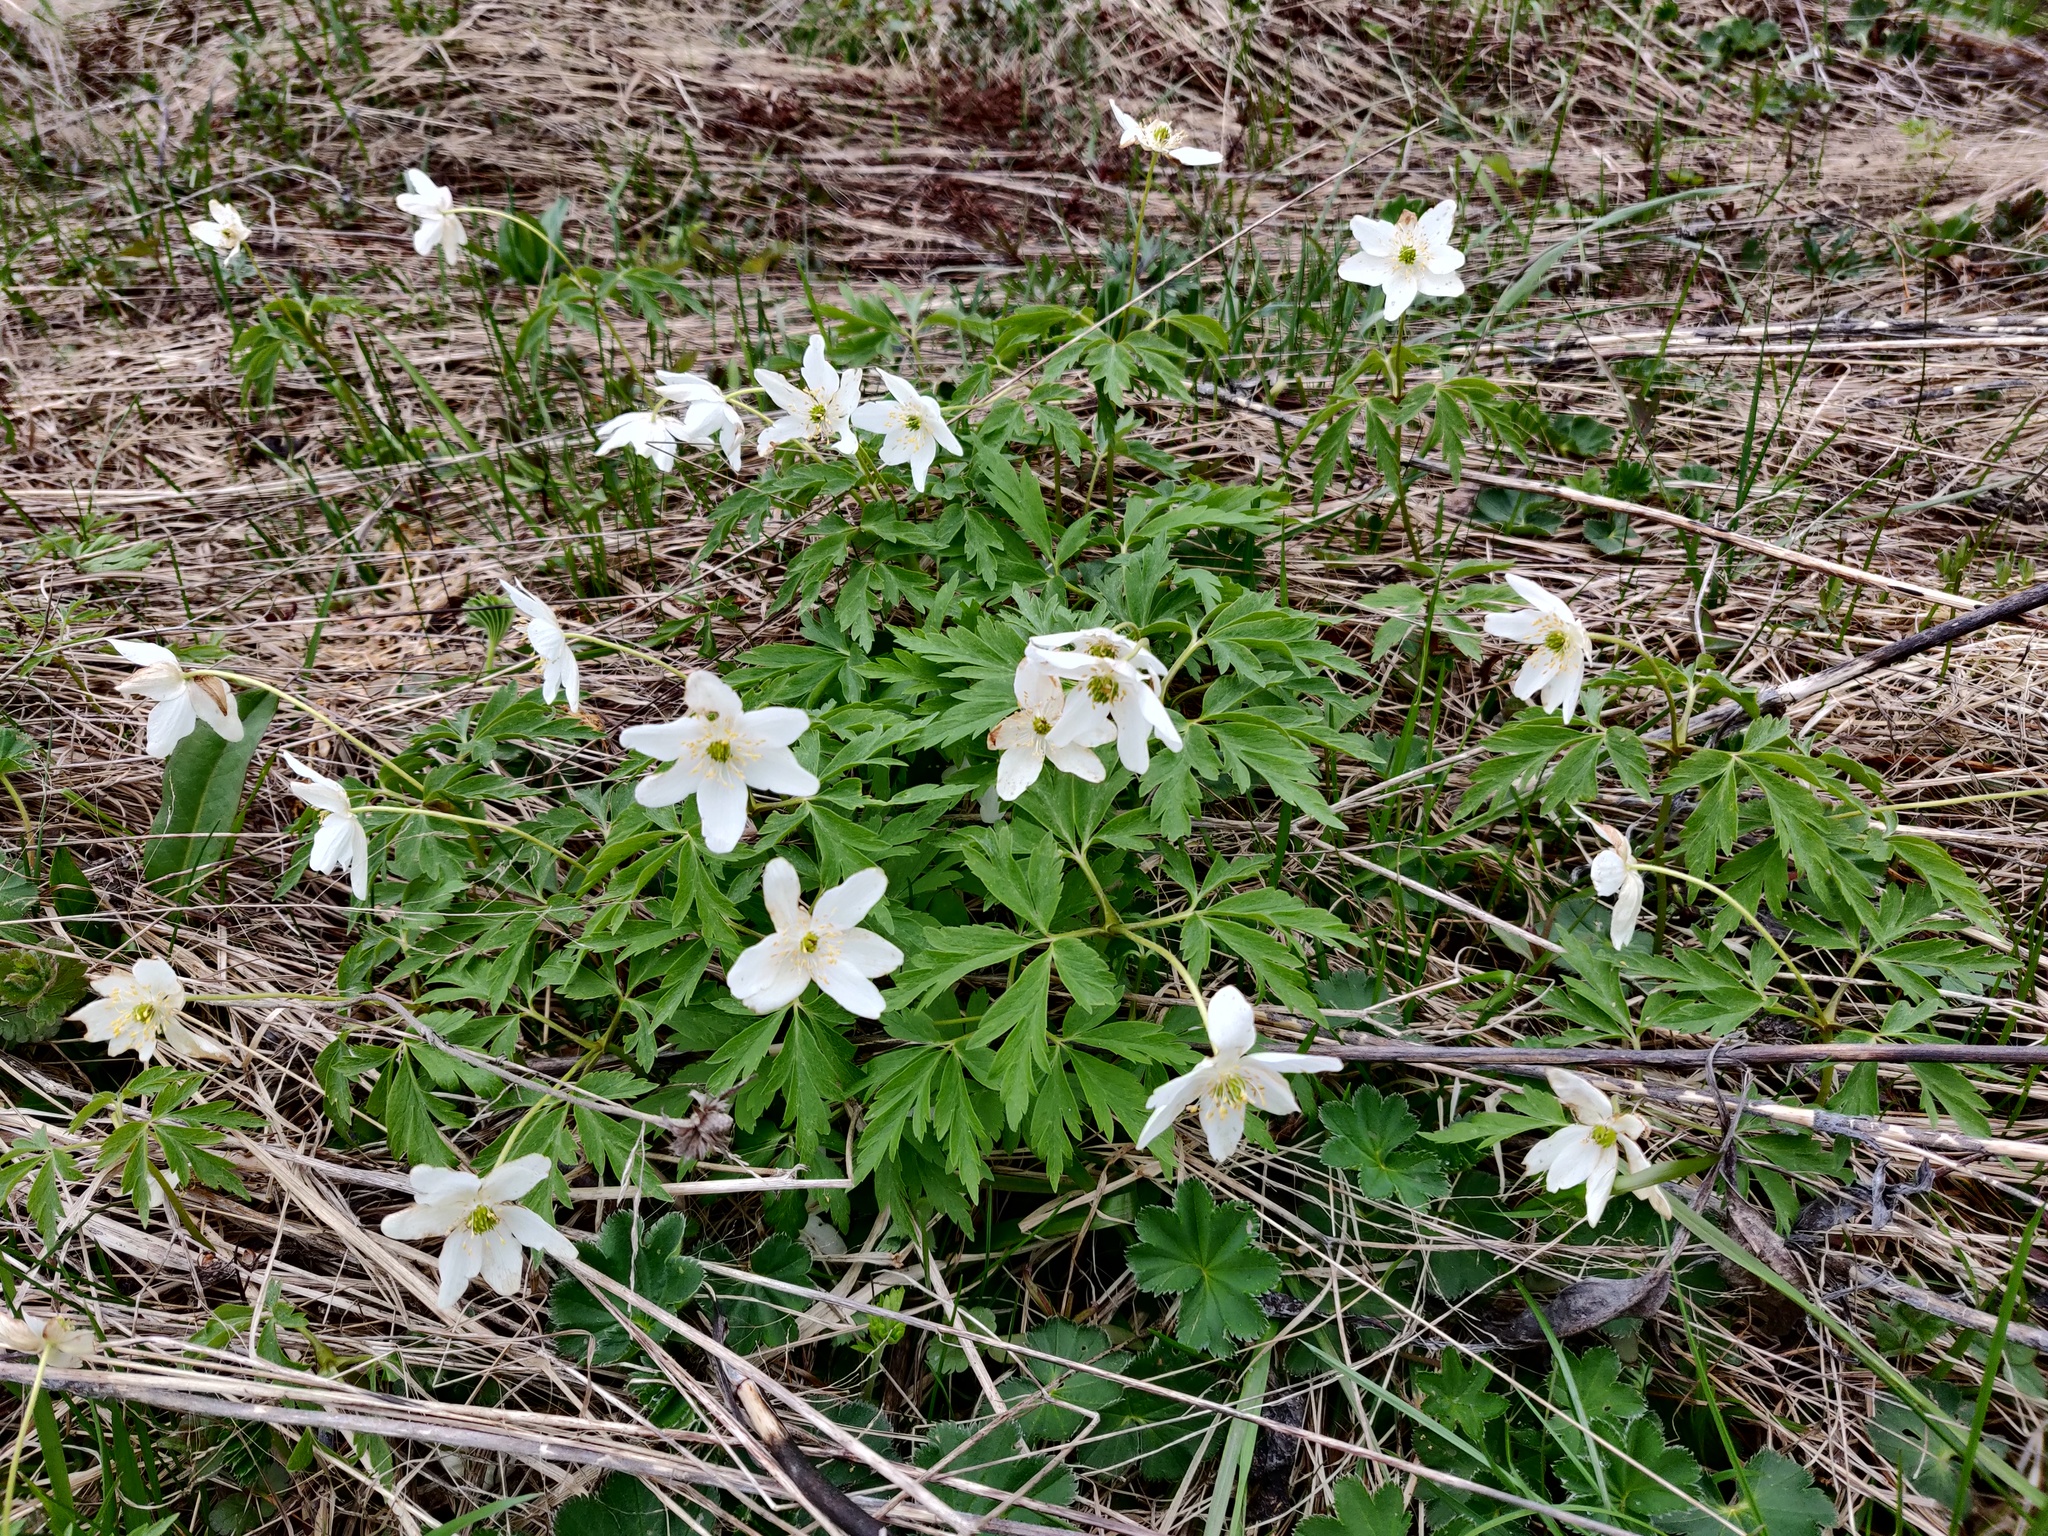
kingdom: Plantae
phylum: Tracheophyta
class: Magnoliopsida
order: Ranunculales
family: Ranunculaceae
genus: Anemone
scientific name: Anemone nemorosa
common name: Wood anemone
